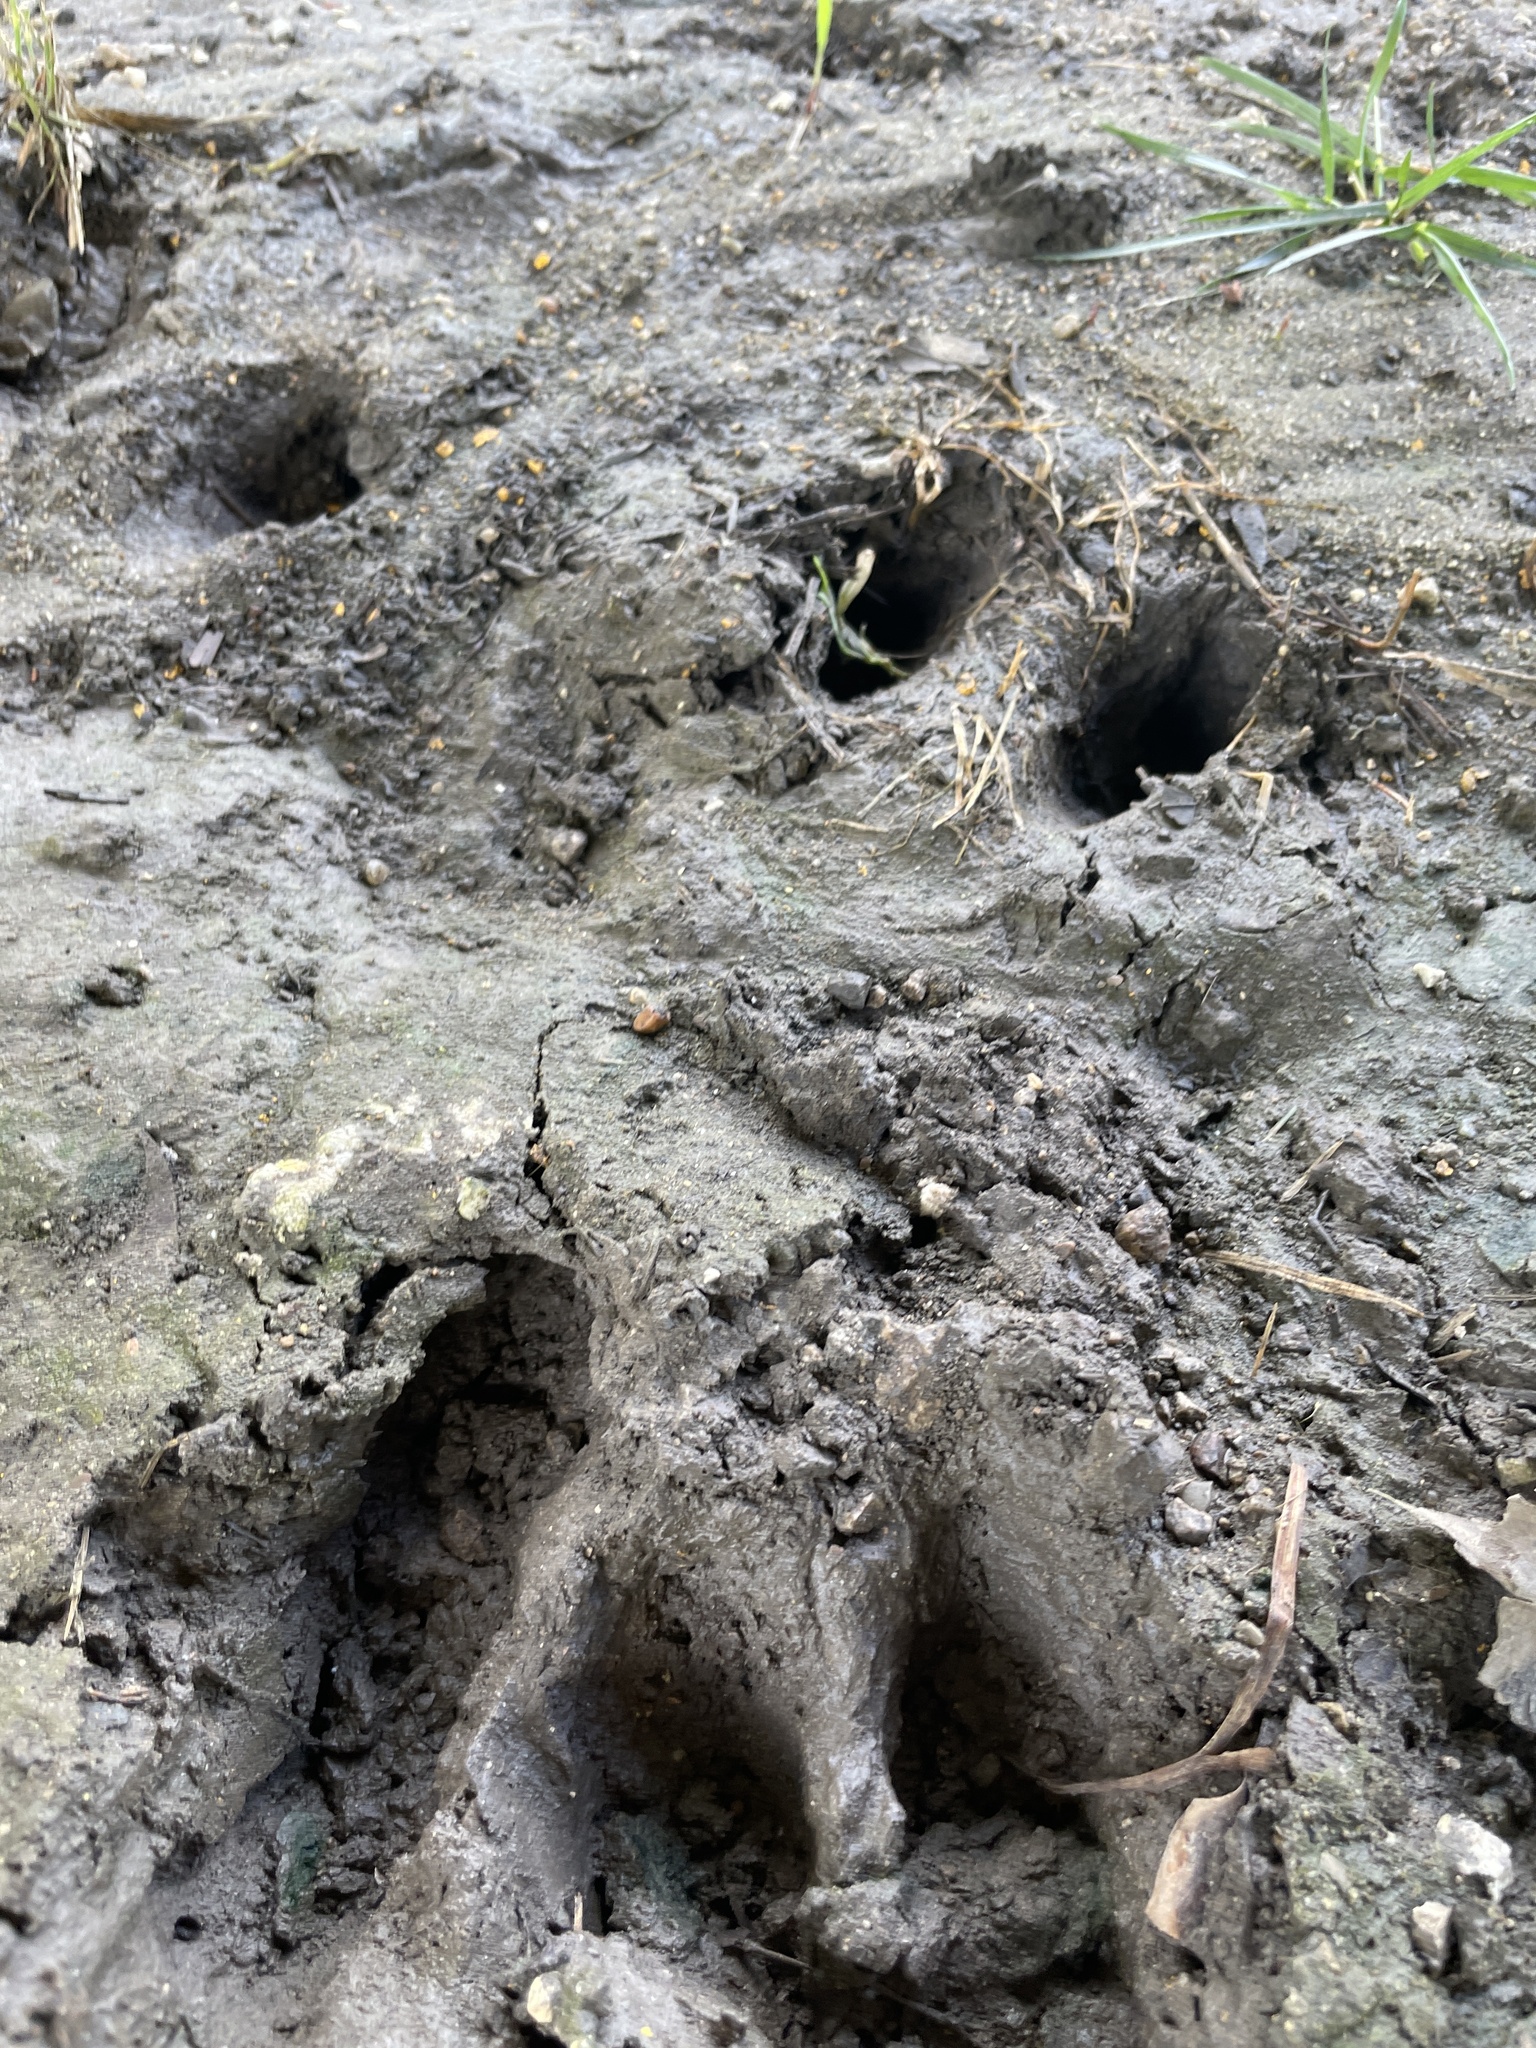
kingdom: Animalia
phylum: Chordata
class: Mammalia
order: Artiodactyla
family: Cervidae
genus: Odocoileus
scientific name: Odocoileus virginianus
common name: White-tailed deer
